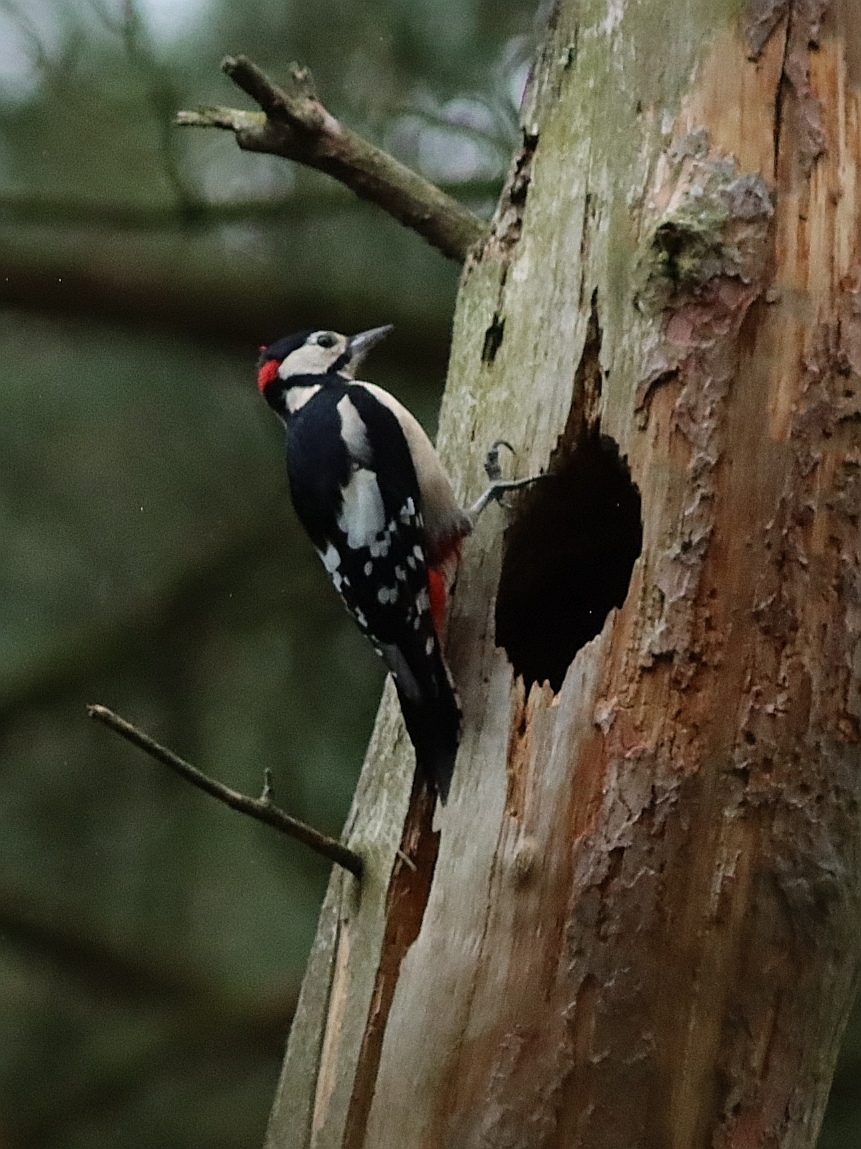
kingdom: Animalia
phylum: Chordata
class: Aves
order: Piciformes
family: Picidae
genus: Dendrocopos
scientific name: Dendrocopos major
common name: Great spotted woodpecker
